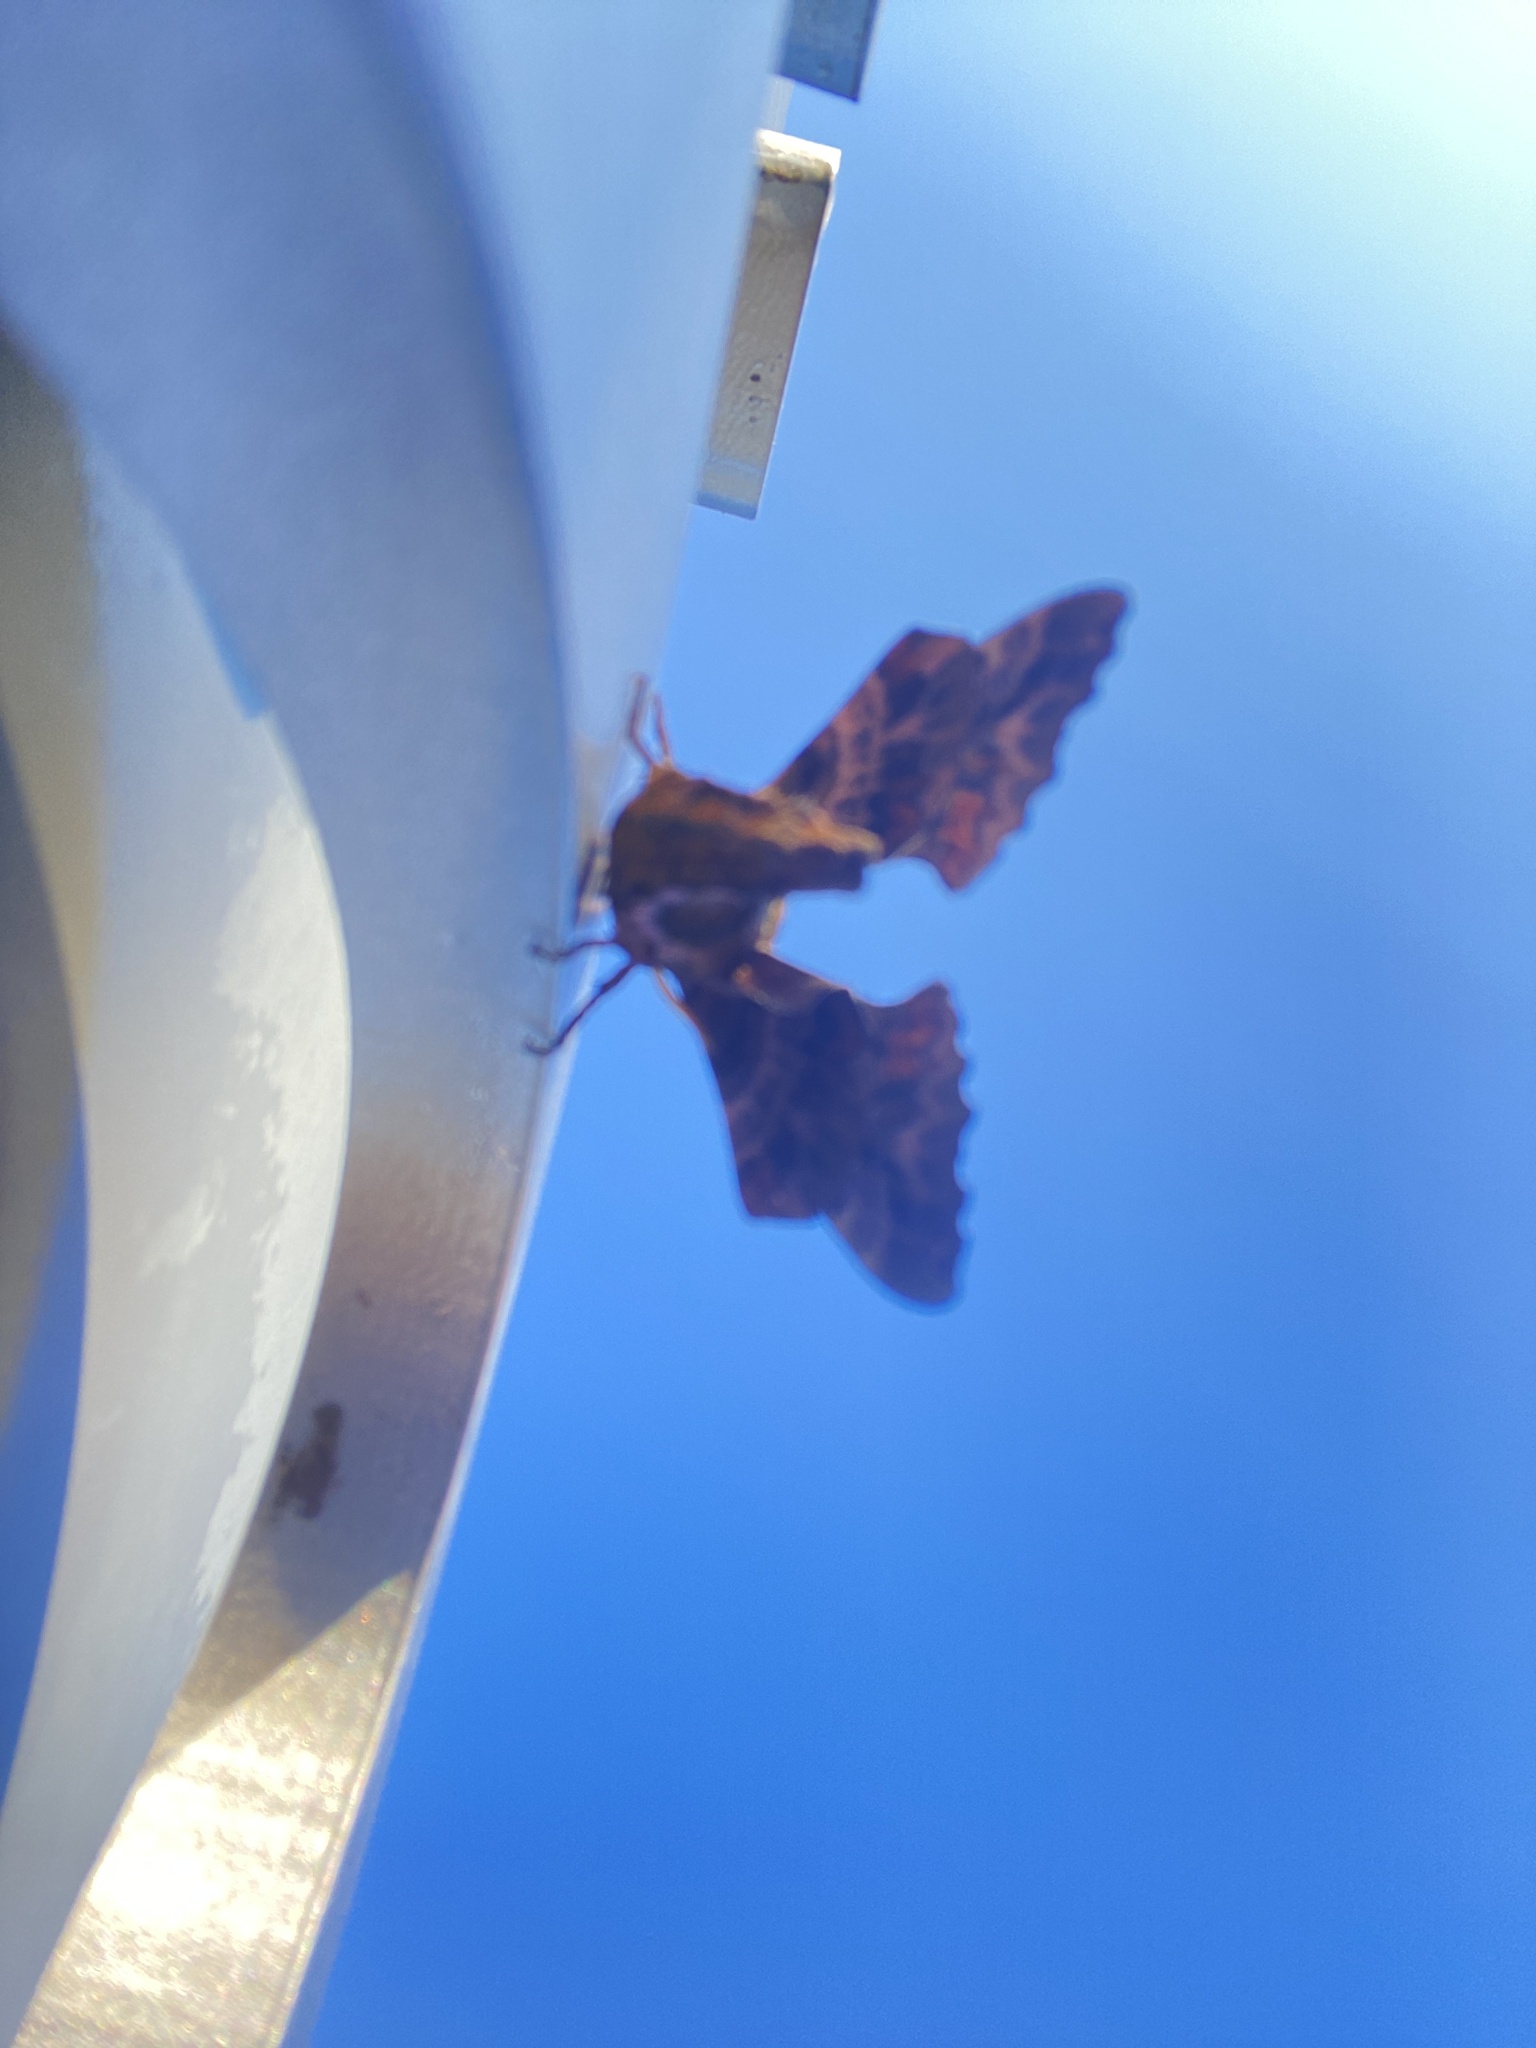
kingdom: Animalia
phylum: Arthropoda
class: Insecta
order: Lepidoptera
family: Sphingidae
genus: Paonias
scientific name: Paonias excaecata
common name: Blind-eyed sphinx
